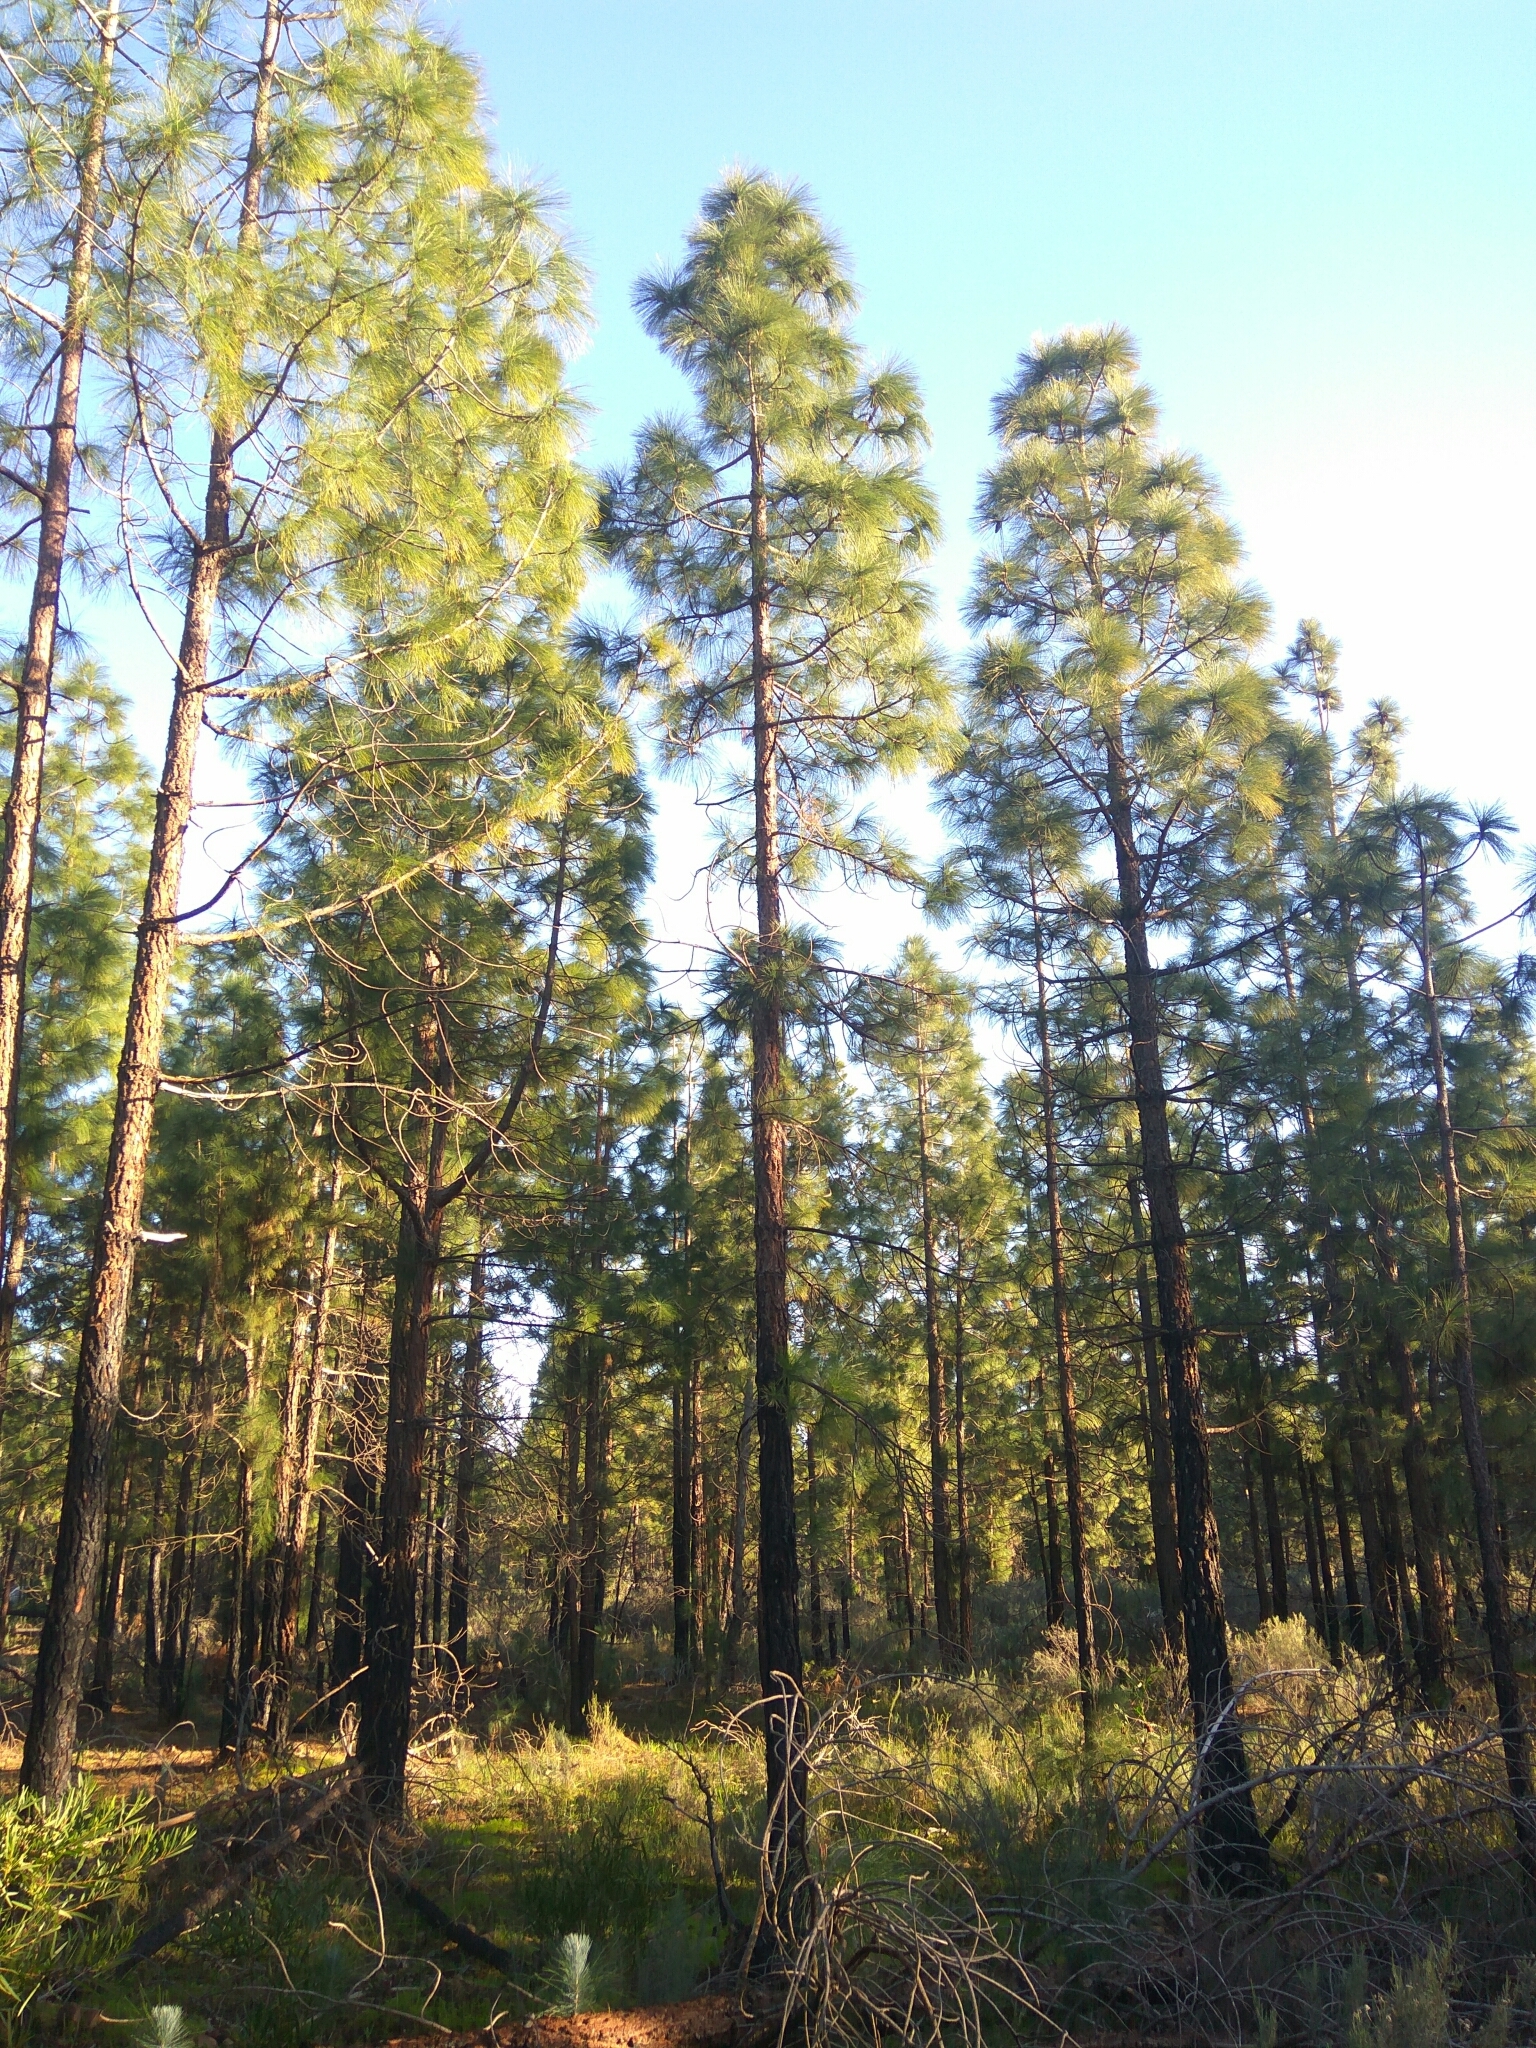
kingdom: Plantae
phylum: Tracheophyta
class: Pinopsida
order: Pinales
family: Pinaceae
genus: Pinus
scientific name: Pinus canariensis
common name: Canary islands pine
